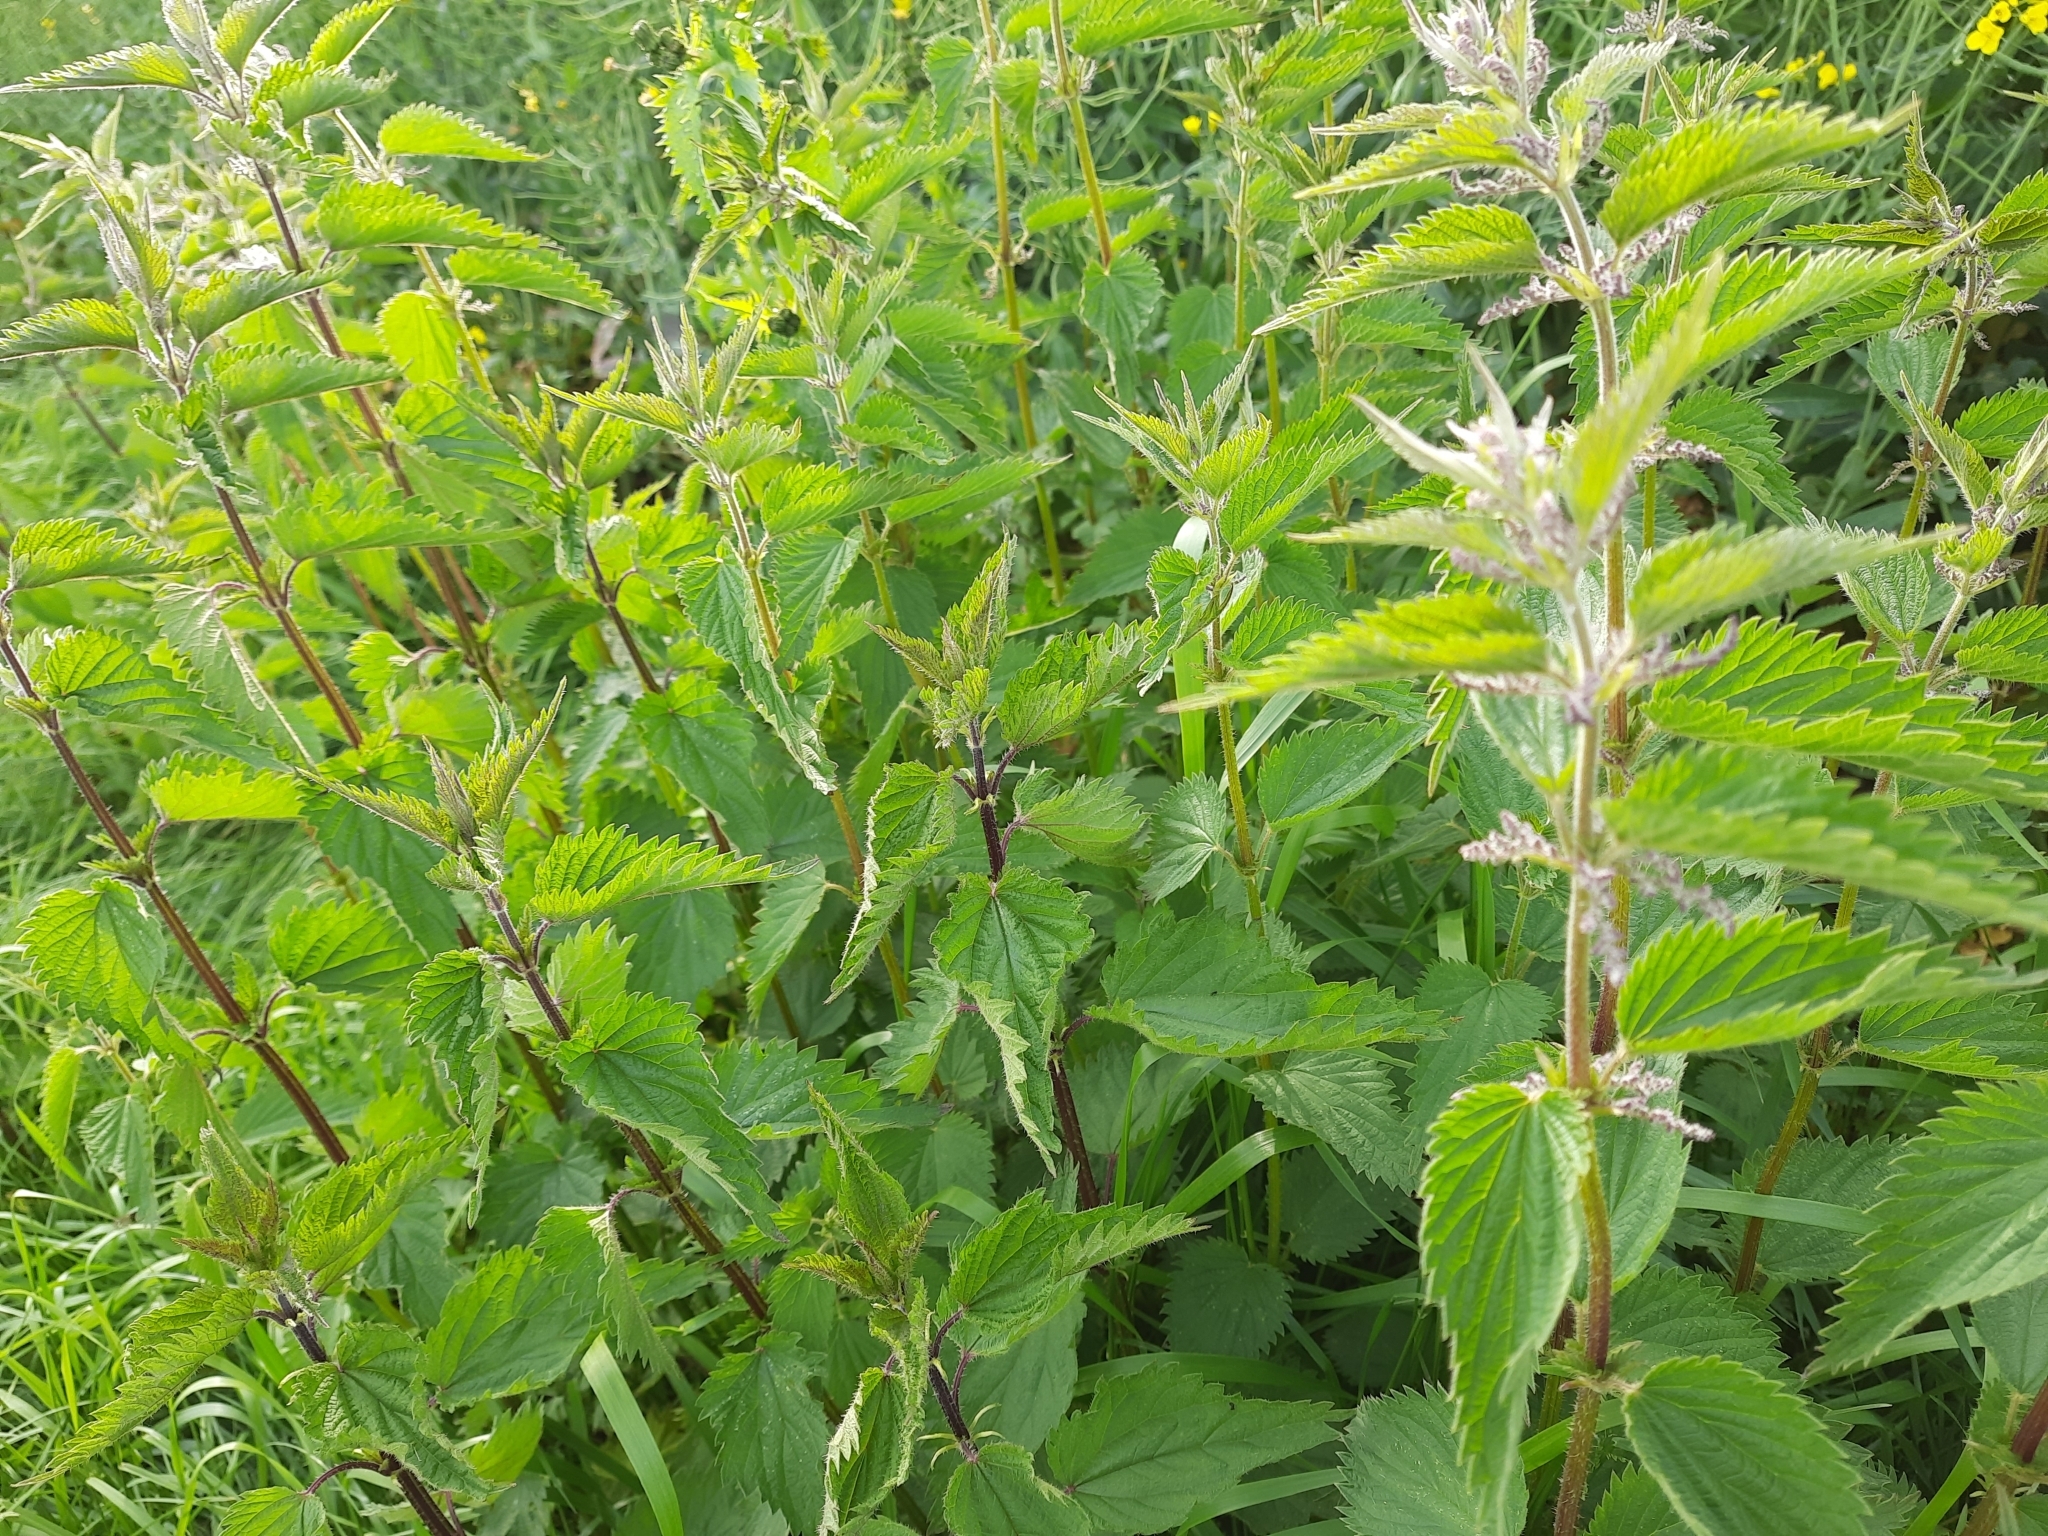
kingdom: Plantae
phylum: Tracheophyta
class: Magnoliopsida
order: Rosales
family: Urticaceae
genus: Urtica
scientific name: Urtica dioica
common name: Common nettle
